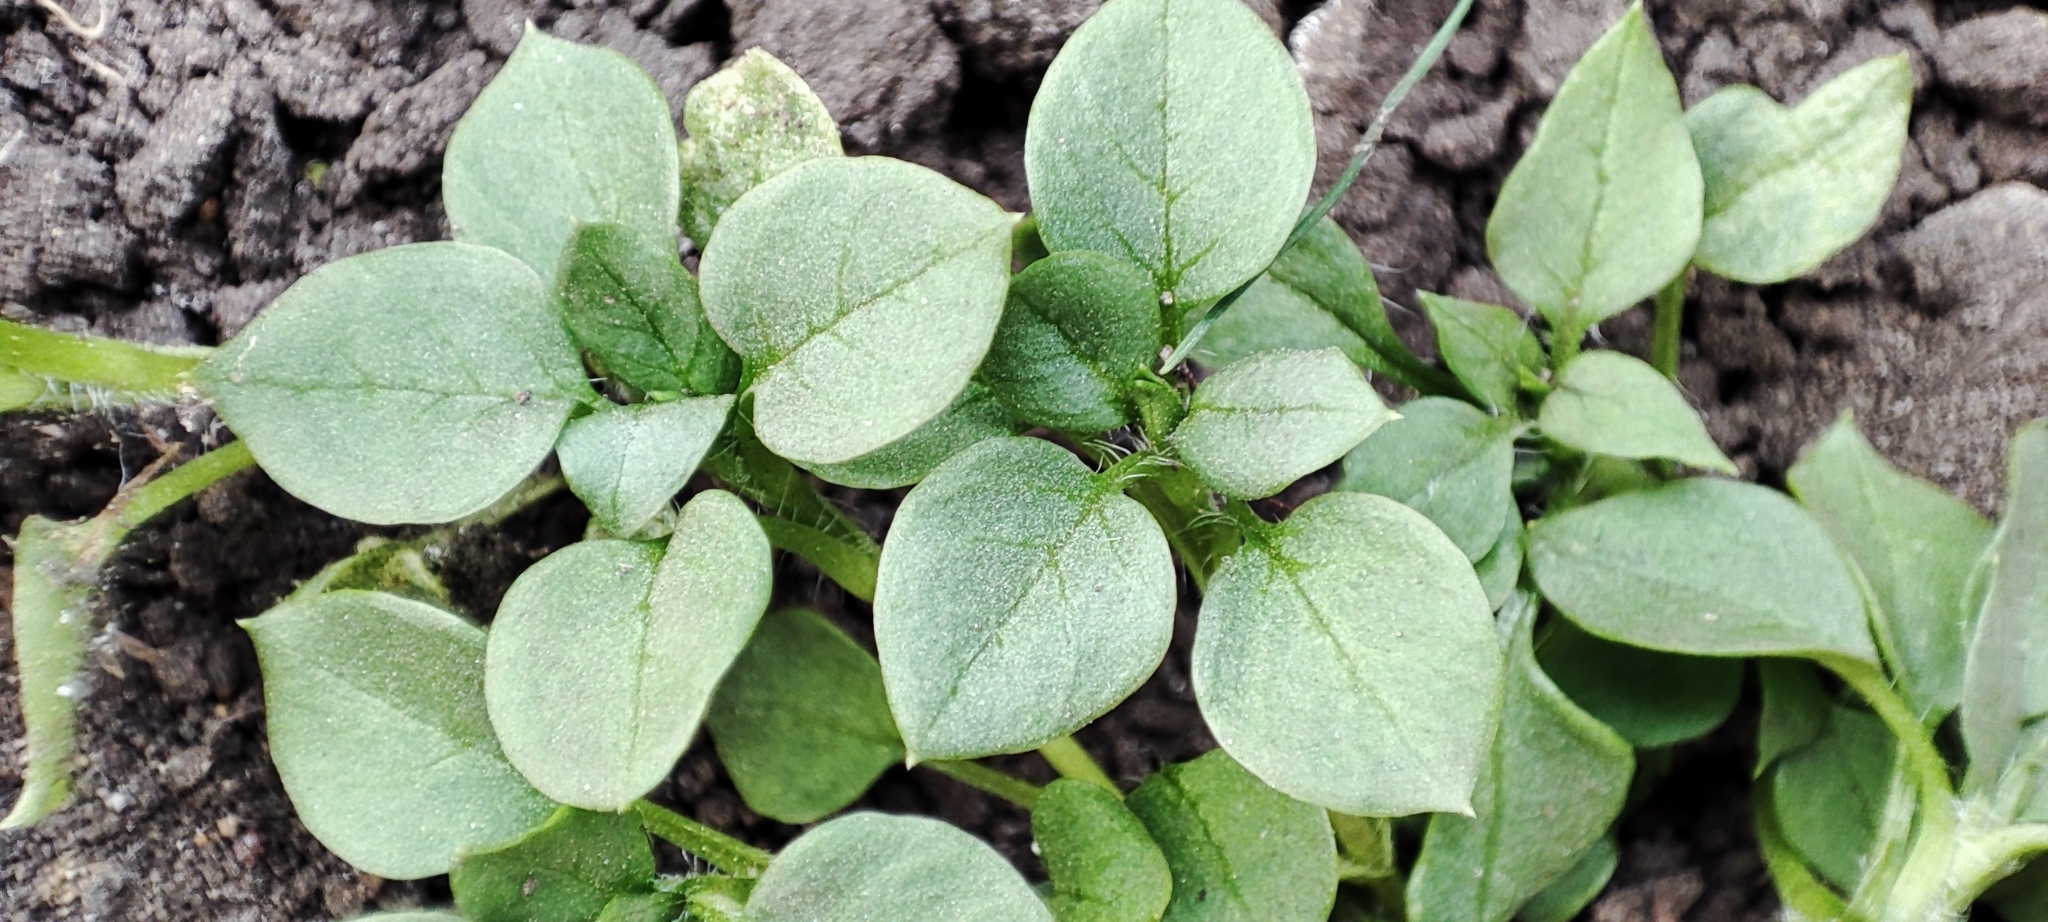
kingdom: Plantae
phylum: Tracheophyta
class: Magnoliopsida
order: Caryophyllales
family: Caryophyllaceae
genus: Stellaria
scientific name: Stellaria media
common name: Common chickweed
